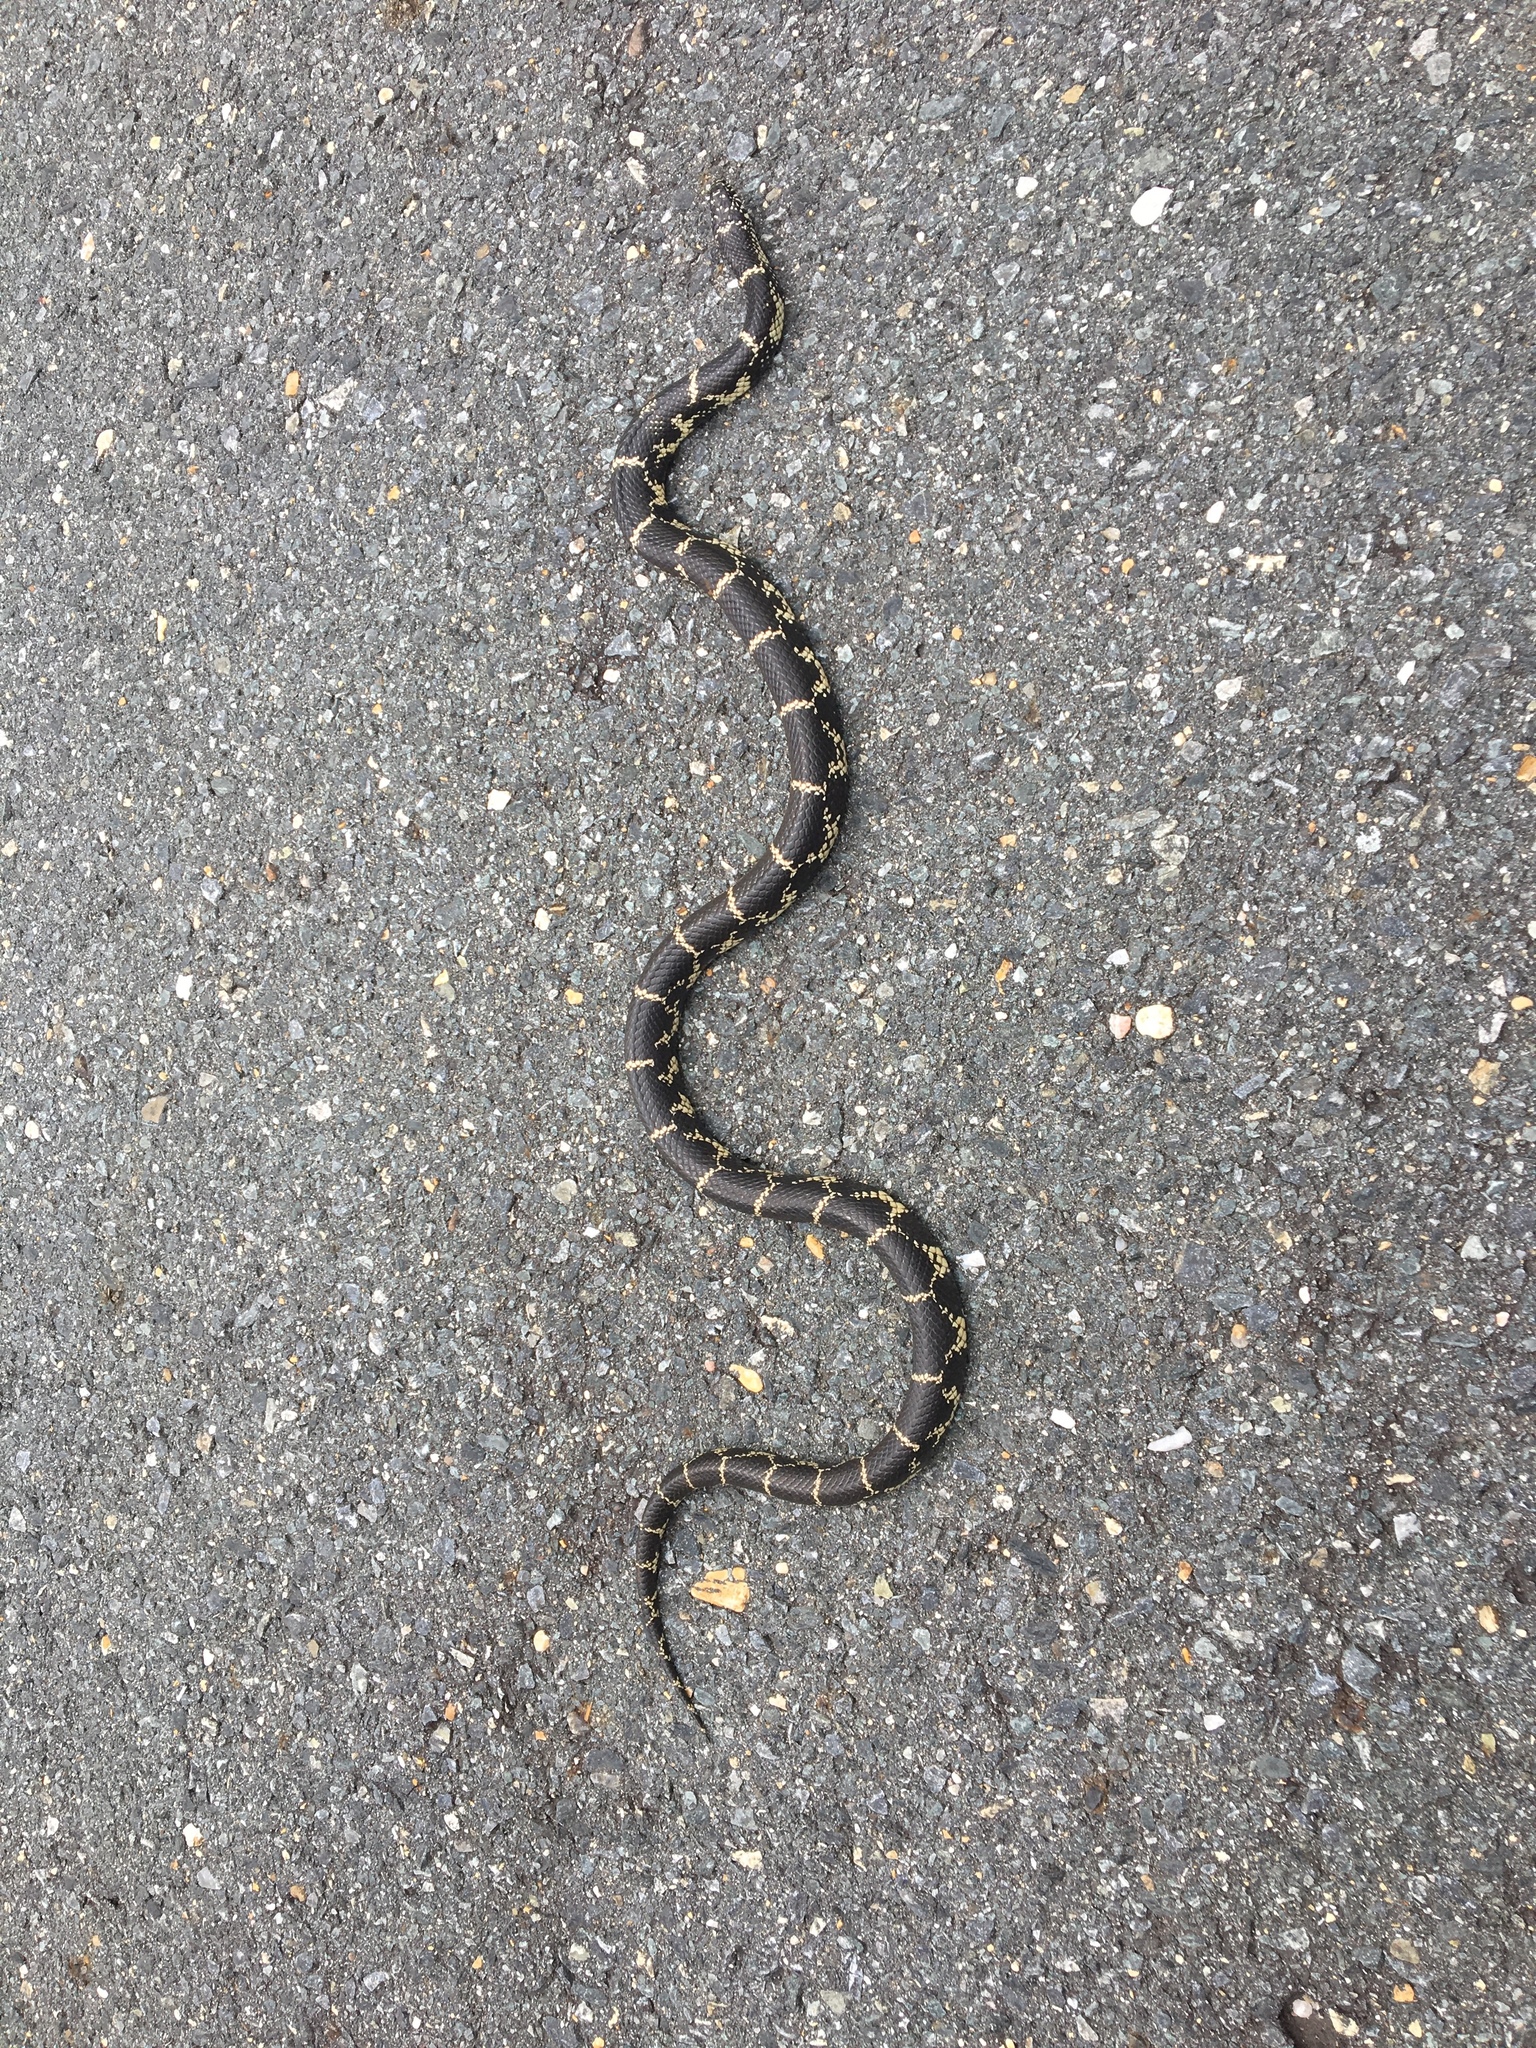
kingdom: Animalia
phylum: Chordata
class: Squamata
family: Colubridae
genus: Lampropeltis
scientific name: Lampropeltis getula
